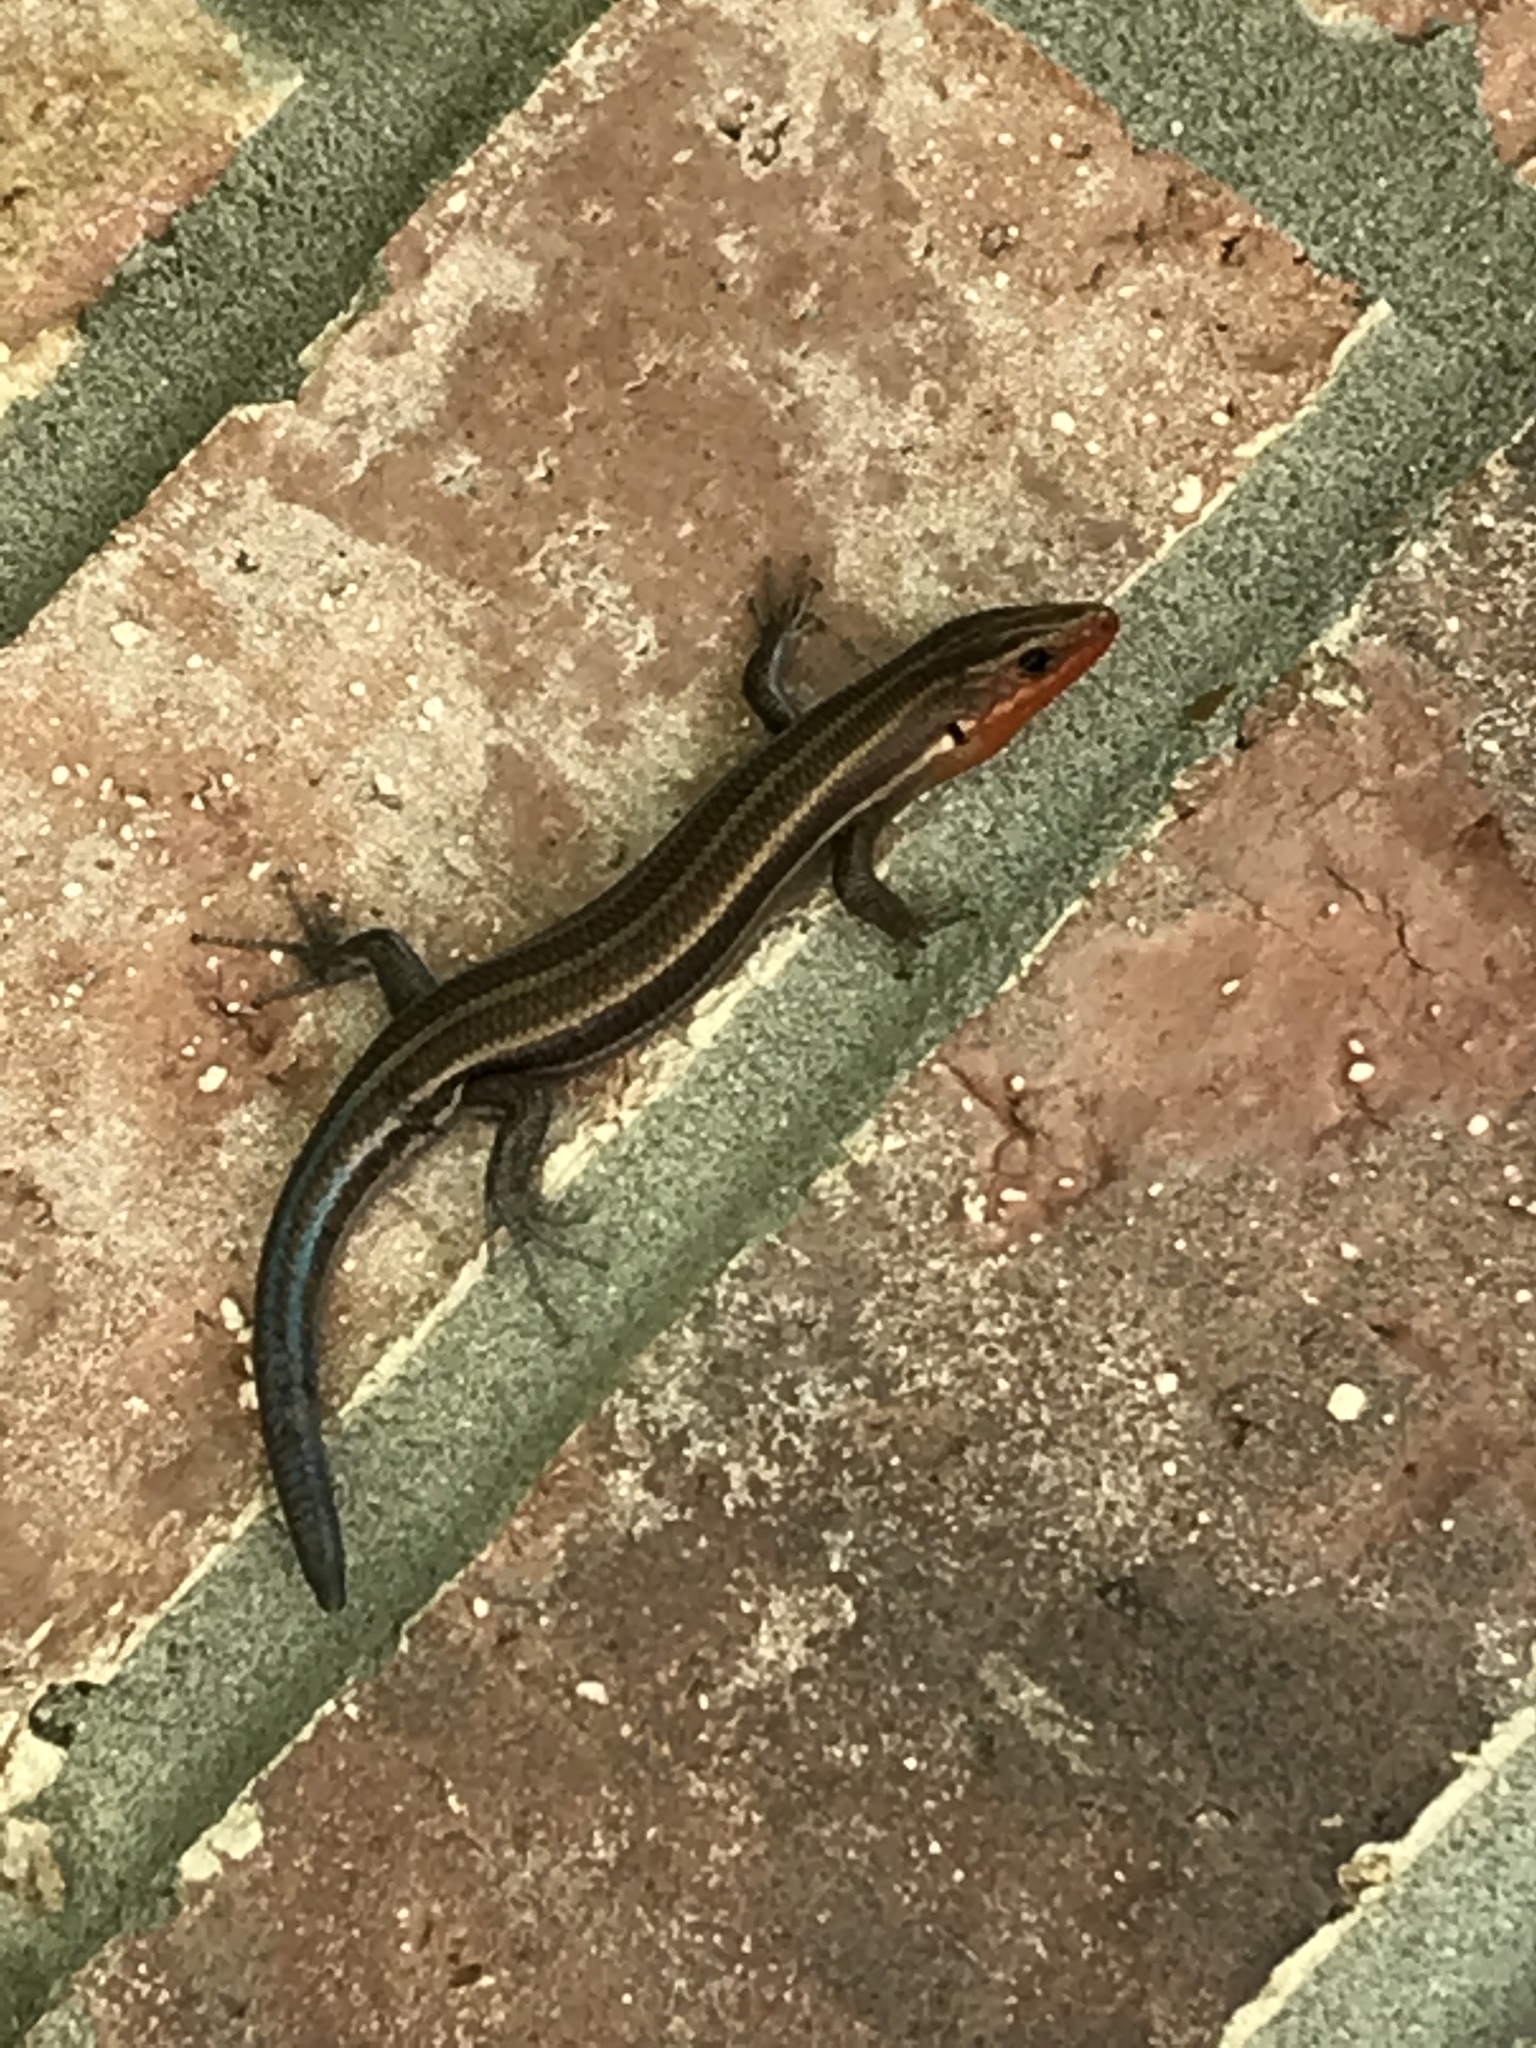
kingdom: Animalia
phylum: Chordata
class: Squamata
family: Scincidae
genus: Plestiodon
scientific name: Plestiodon fasciatus
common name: Five-lined skink
